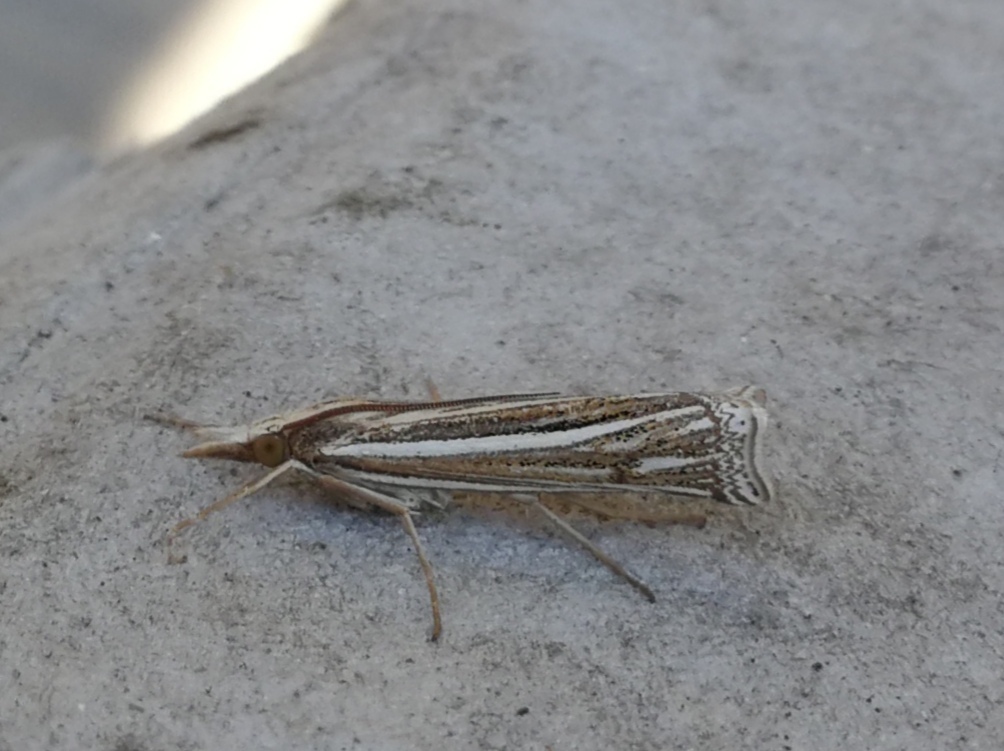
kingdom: Animalia
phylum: Arthropoda
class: Insecta
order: Lepidoptera
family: Crambidae
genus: Ancylolomia
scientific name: Ancylolomia tentaculella
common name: Scarce striped grass-veneer
